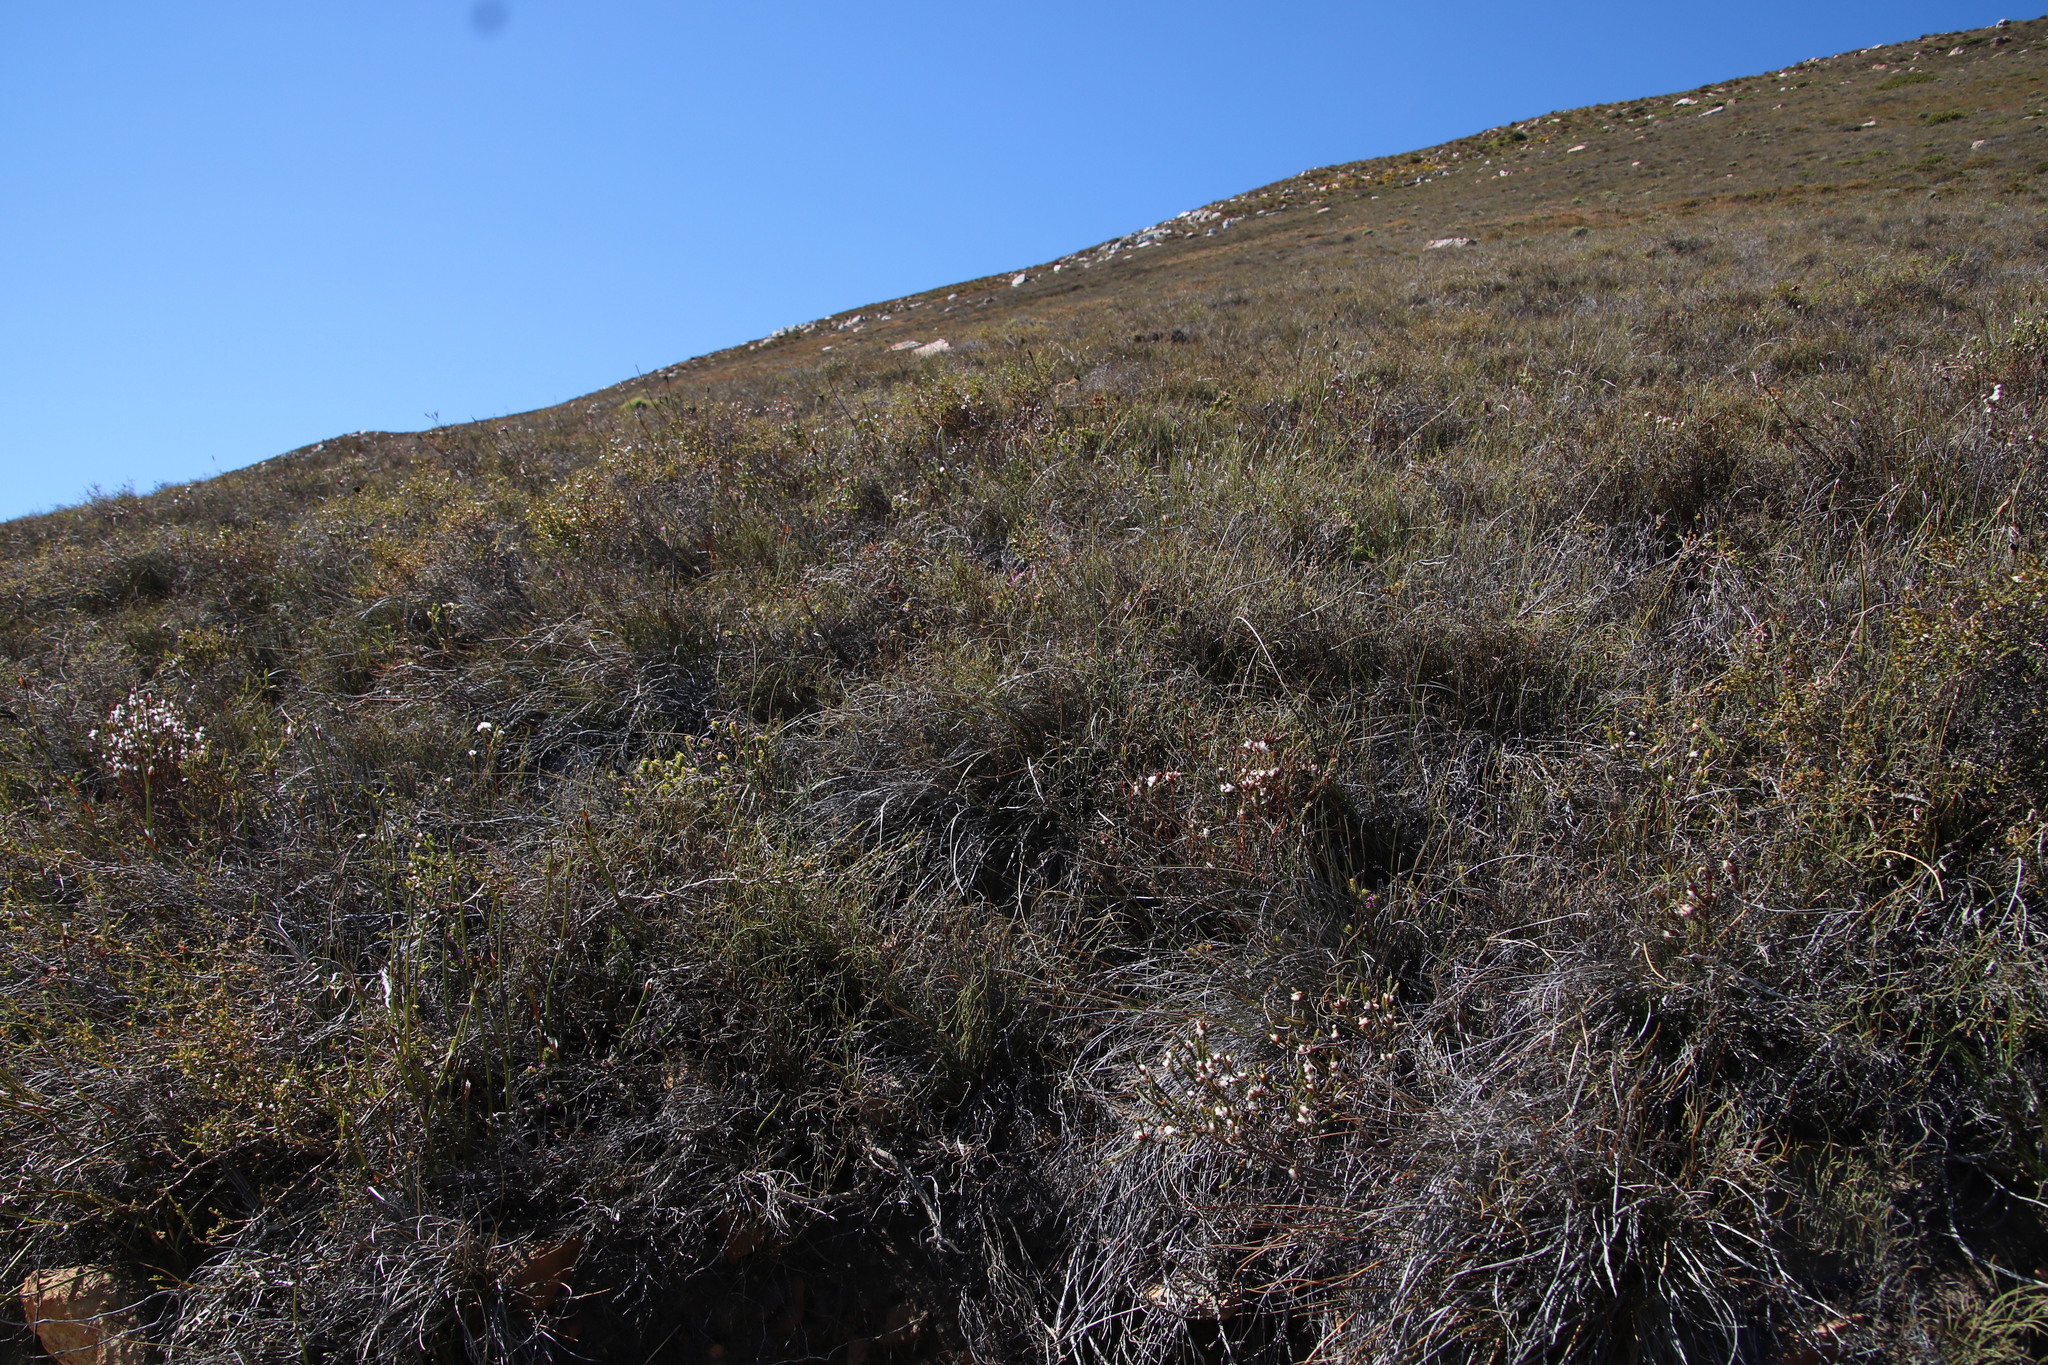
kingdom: Plantae
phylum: Tracheophyta
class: Magnoliopsida
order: Malvales
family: Thymelaeaceae
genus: Lachnaea
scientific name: Lachnaea laniflora
